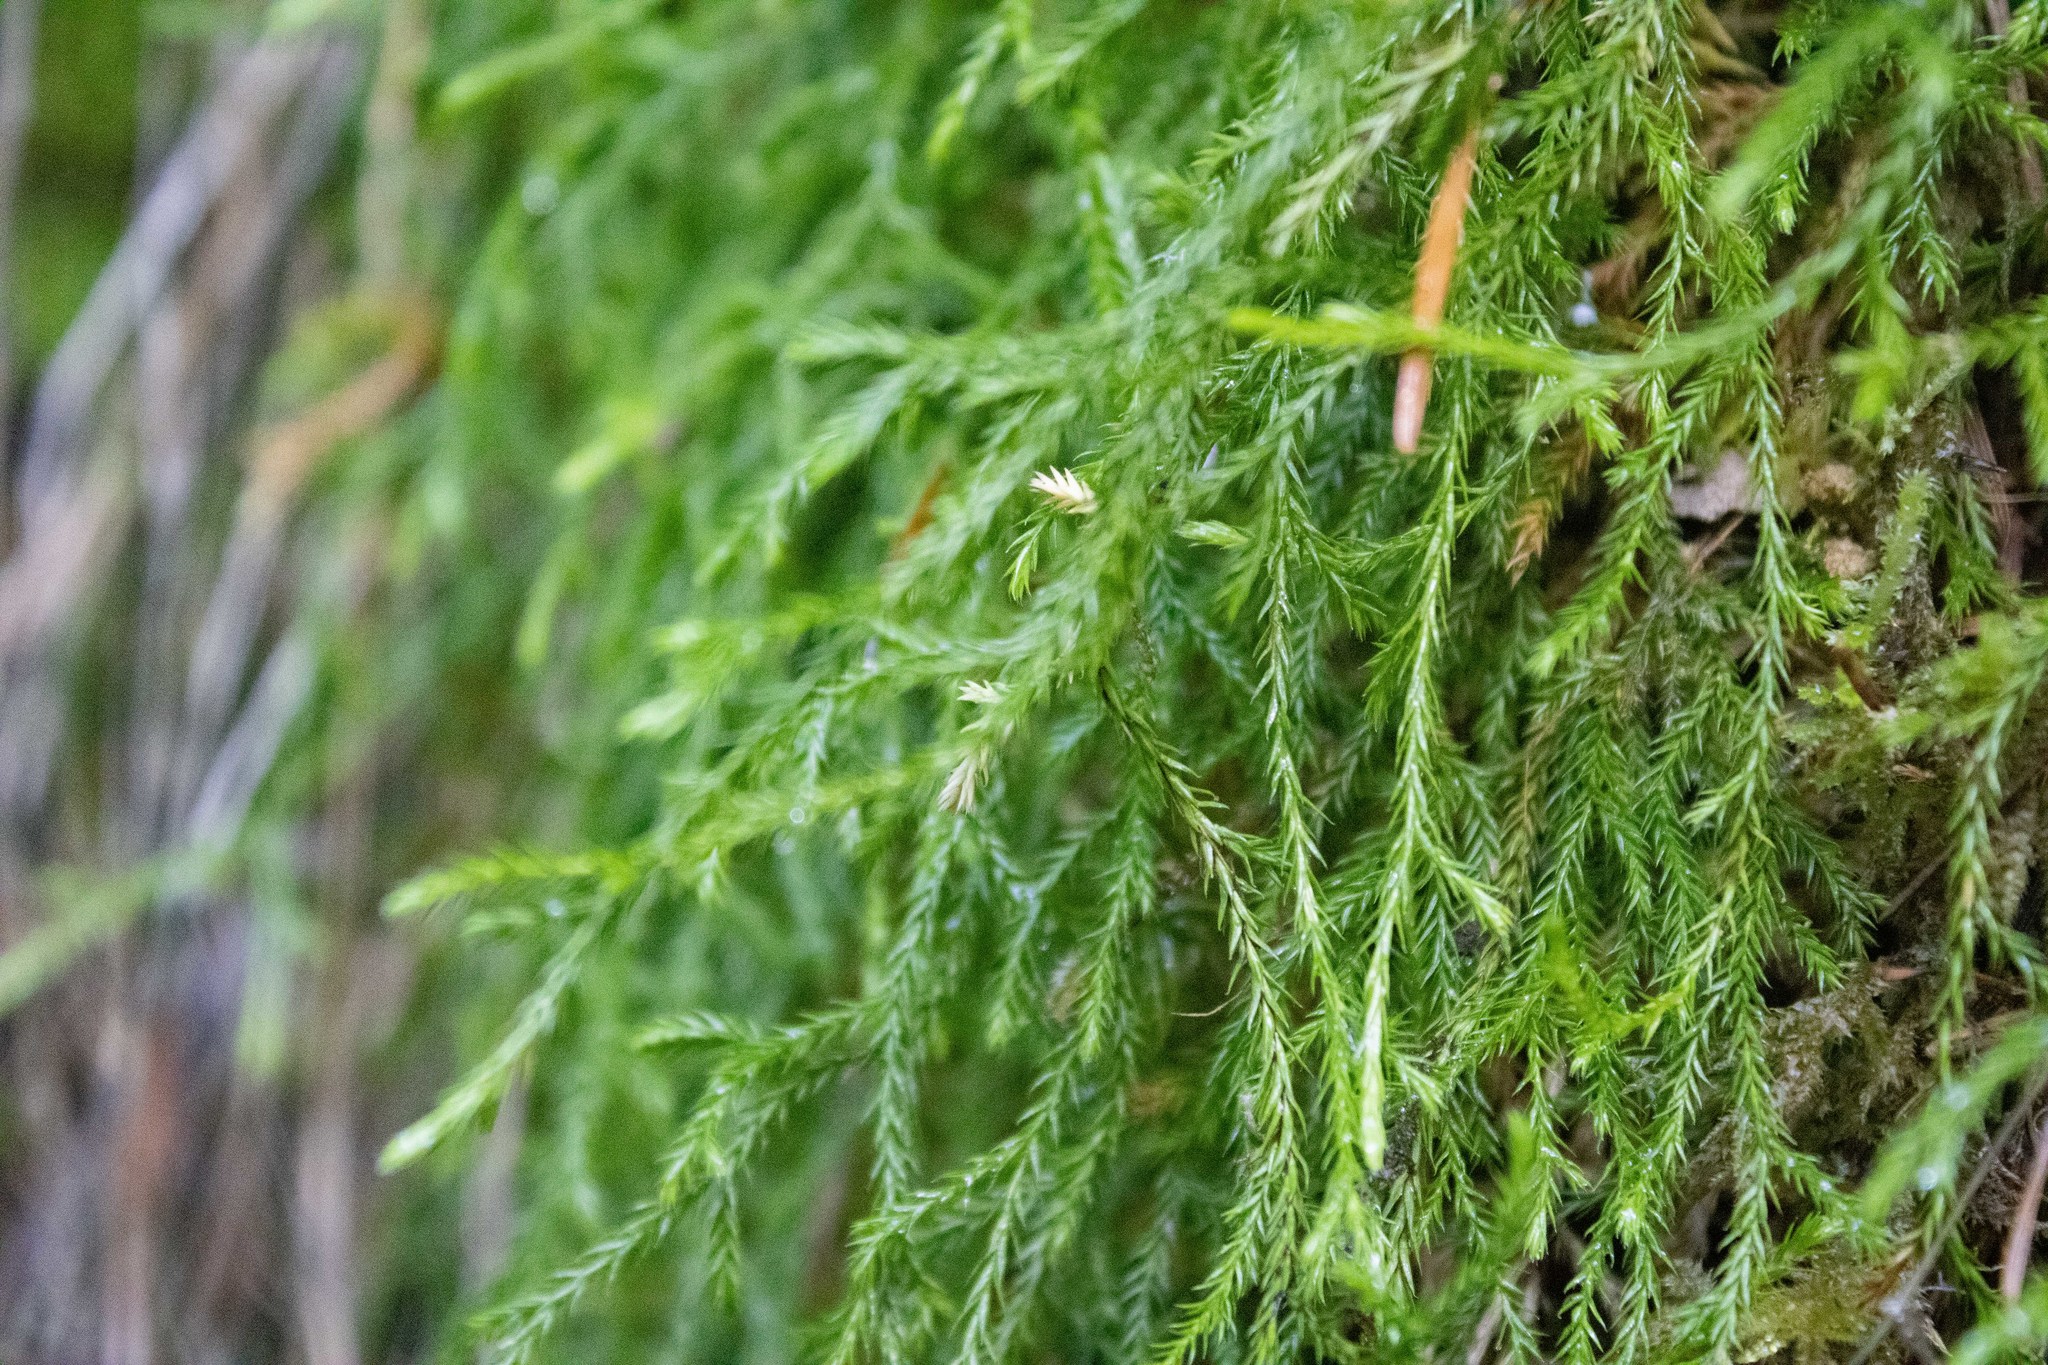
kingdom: Plantae
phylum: Tracheophyta
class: Lycopodiopsida
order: Selaginellales
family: Selaginellaceae
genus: Selaginella
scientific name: Selaginella oregana
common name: Oregon selaginella
